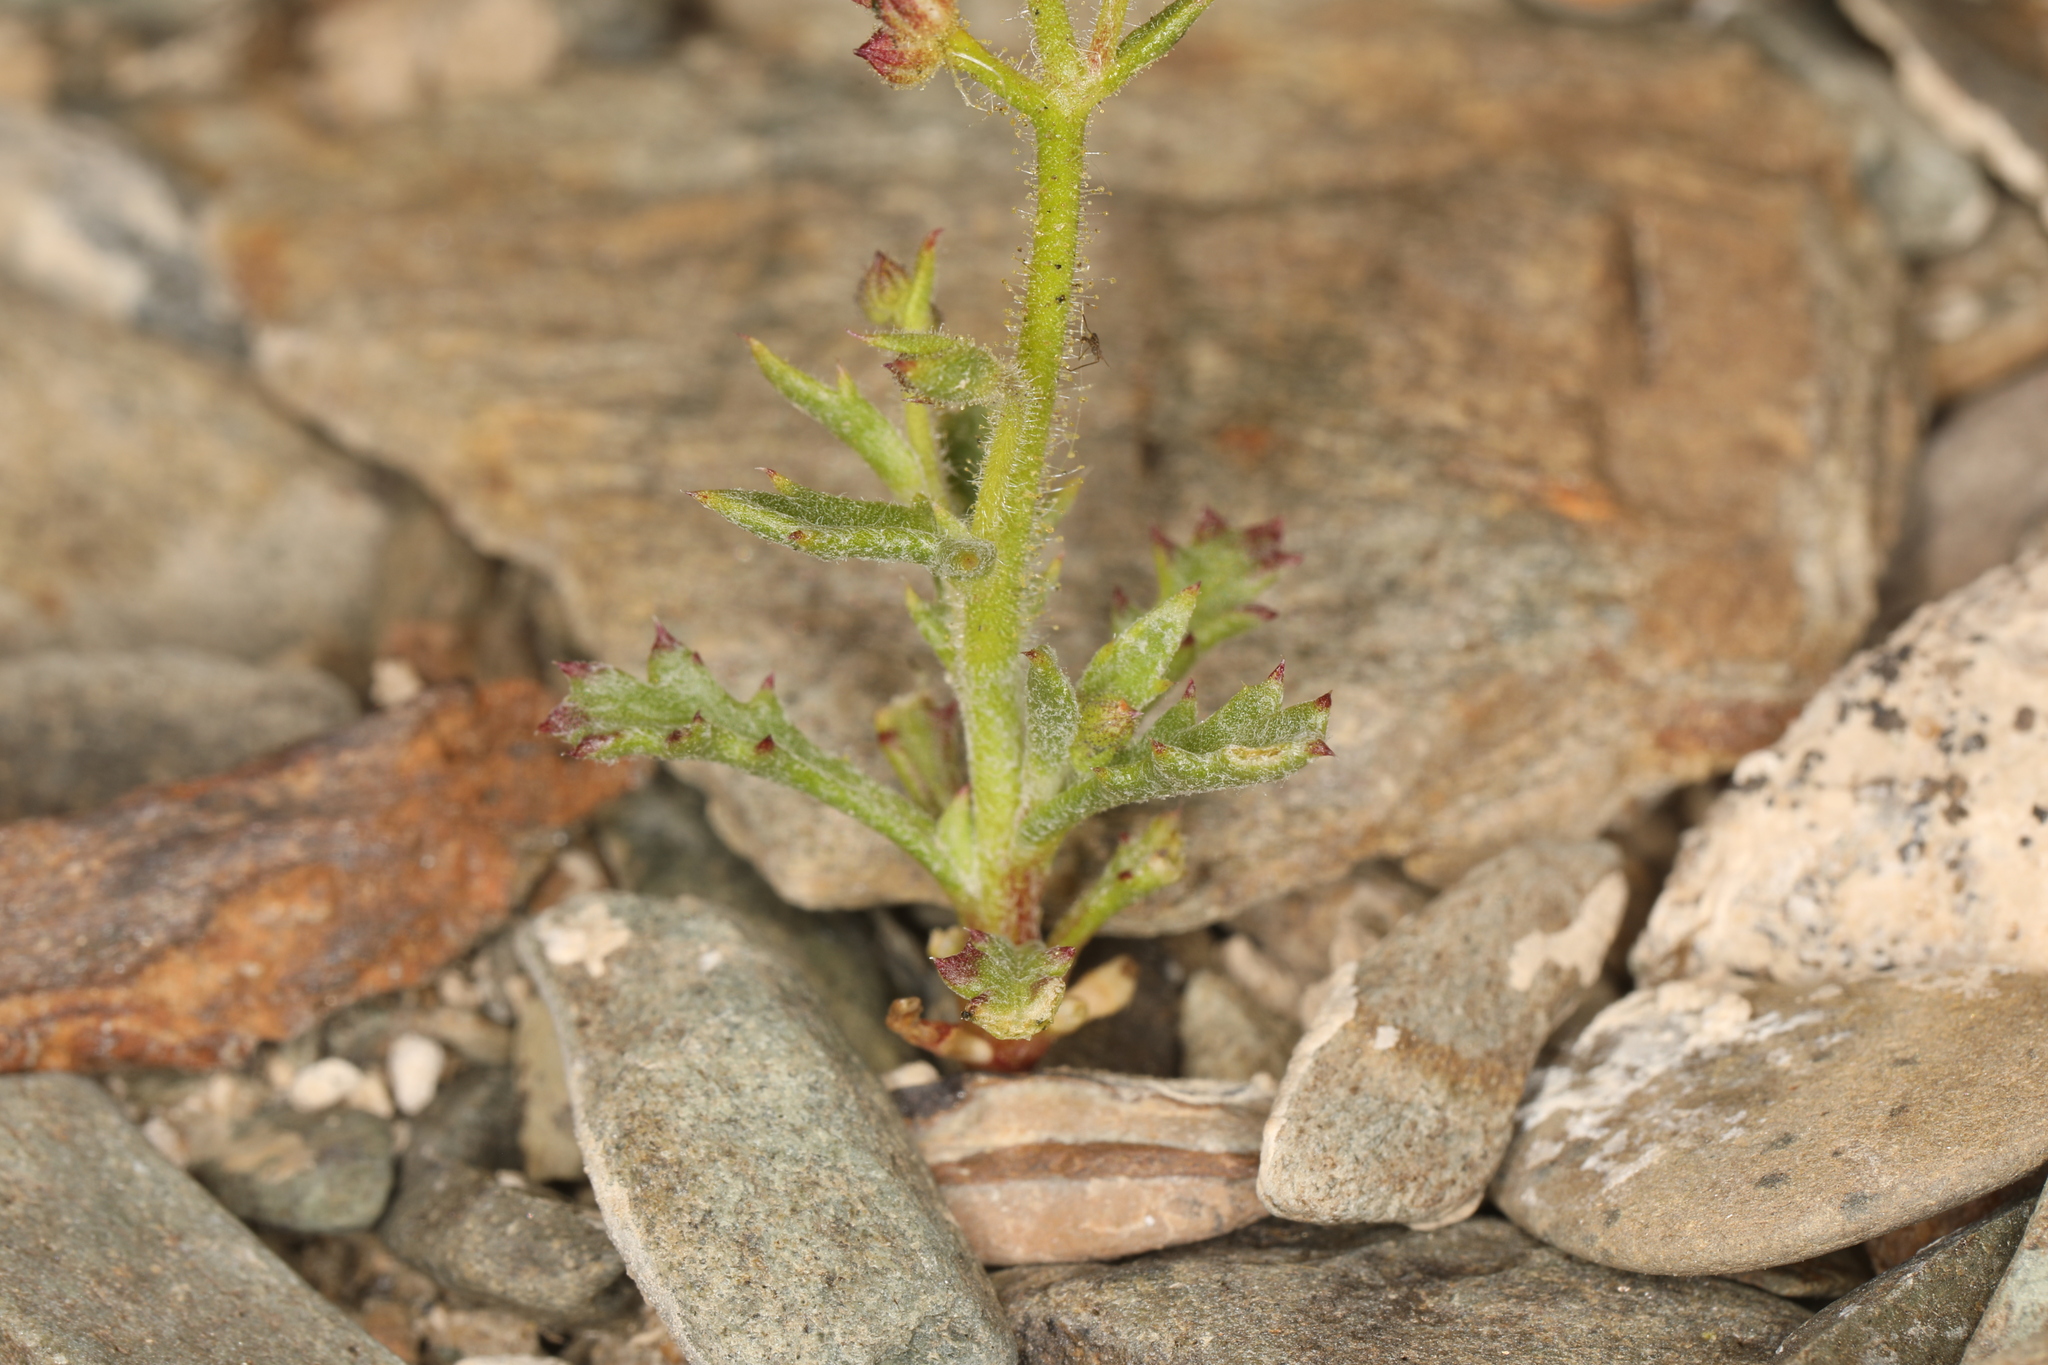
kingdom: Plantae
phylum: Tracheophyta
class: Magnoliopsida
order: Ericales
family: Polemoniaceae
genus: Gilia
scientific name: Gilia cana
